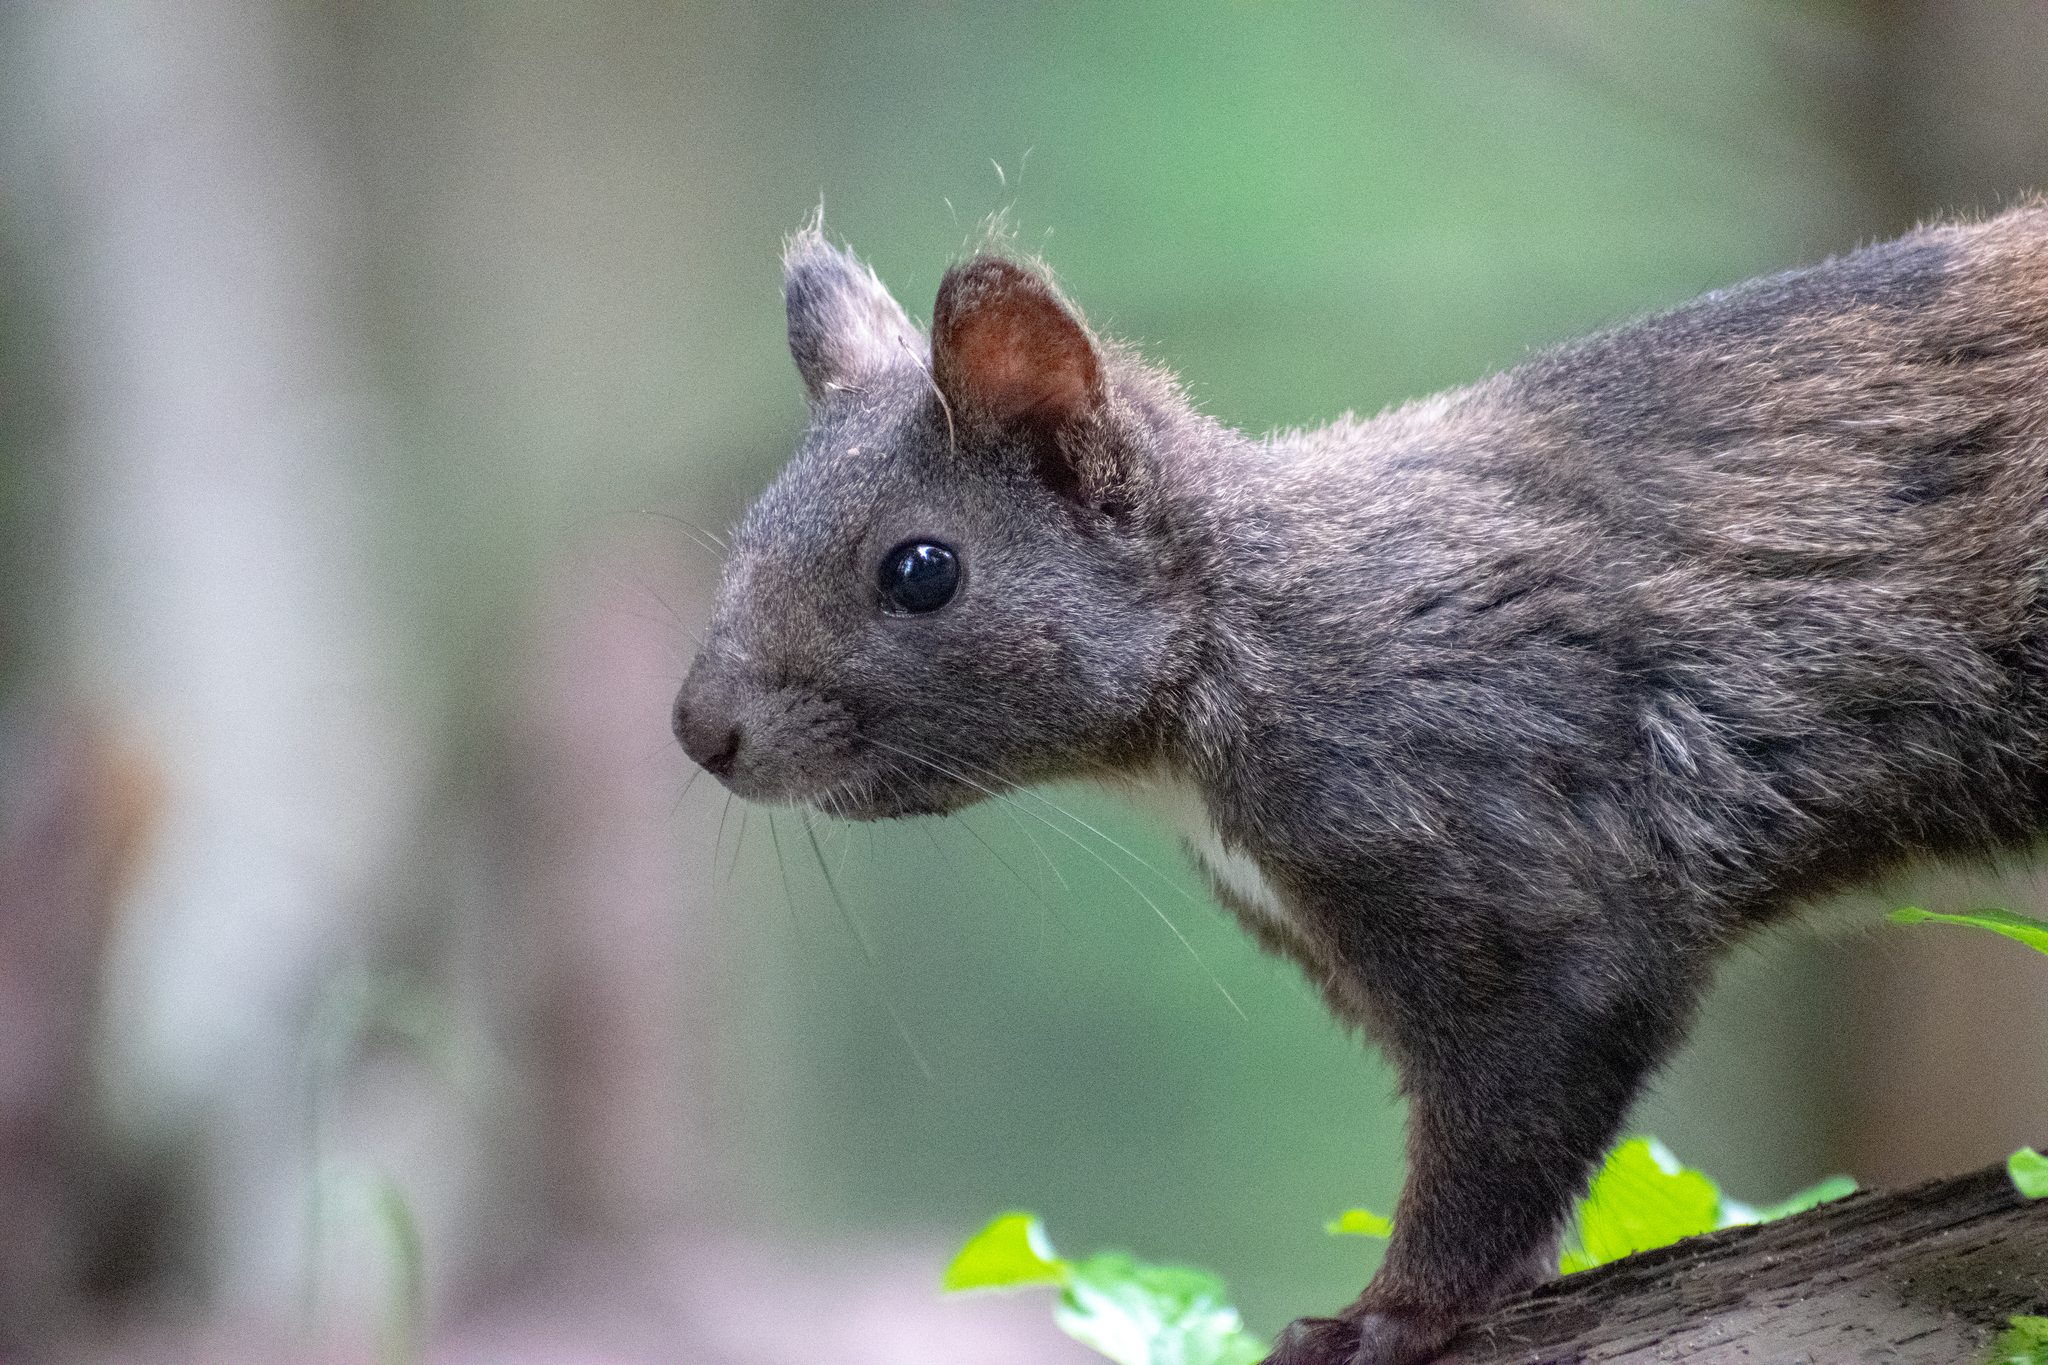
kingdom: Animalia
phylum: Chordata
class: Mammalia
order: Rodentia
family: Sciuridae
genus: Sciurus
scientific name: Sciurus vulgaris
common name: Eurasian red squirrel
